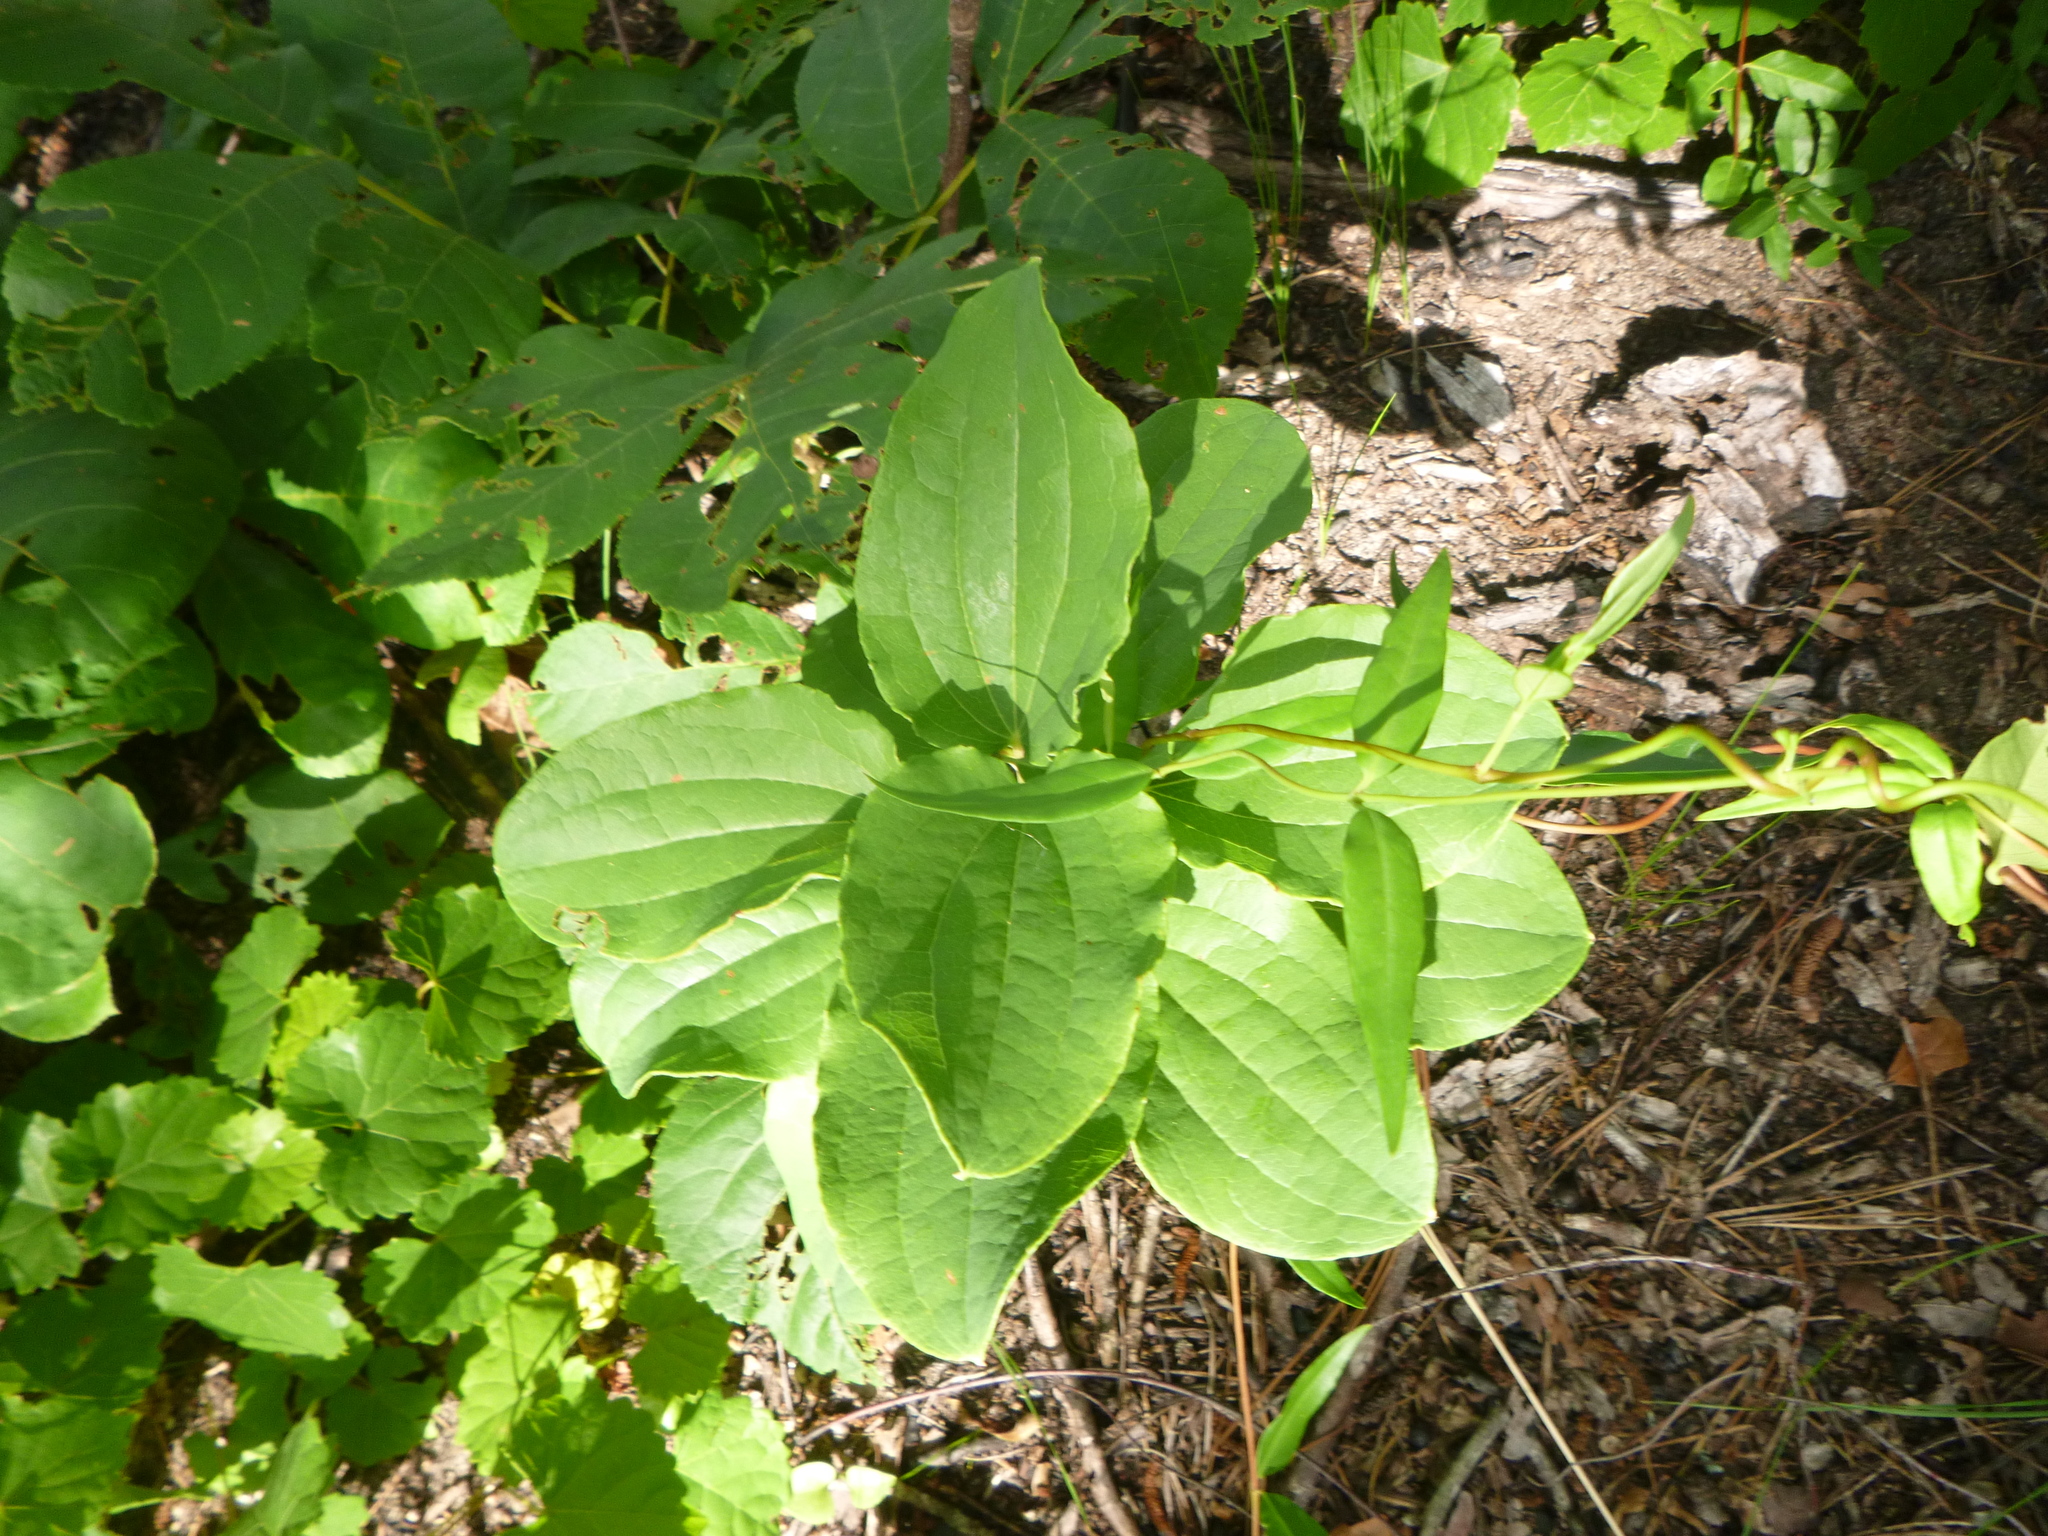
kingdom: Plantae
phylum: Tracheophyta
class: Liliopsida
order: Liliales
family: Smilacaceae
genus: Smilax
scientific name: Smilax hugeri
